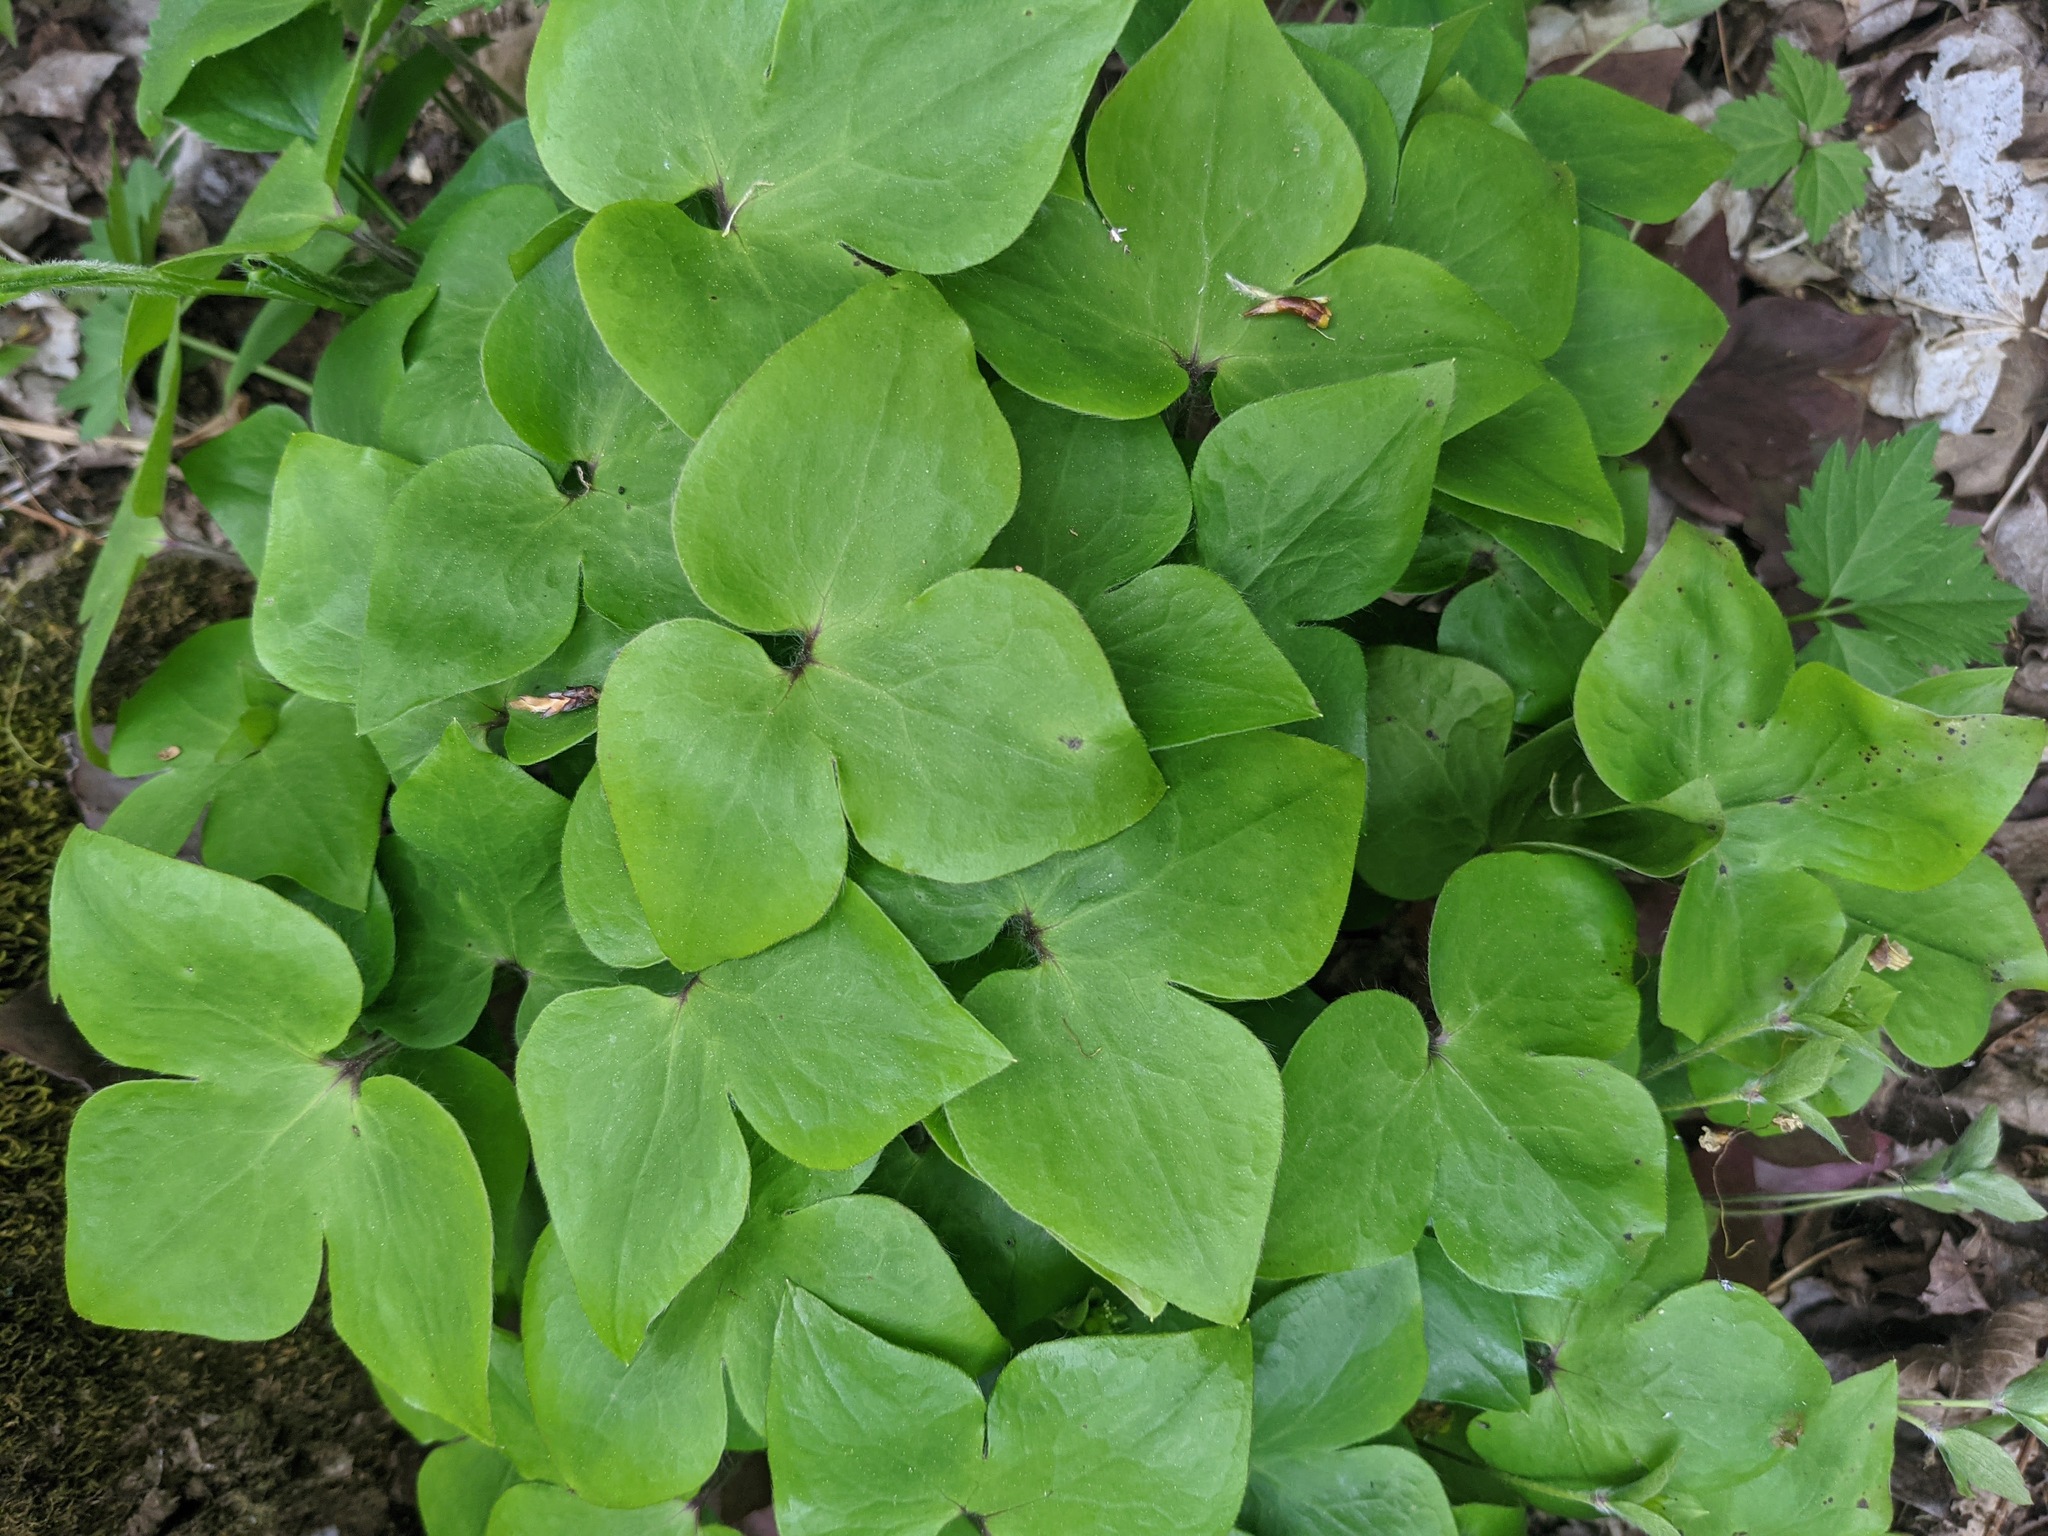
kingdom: Plantae
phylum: Tracheophyta
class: Magnoliopsida
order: Ranunculales
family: Ranunculaceae
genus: Hepatica
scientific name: Hepatica acutiloba
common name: Sharp-lobed hepatica
